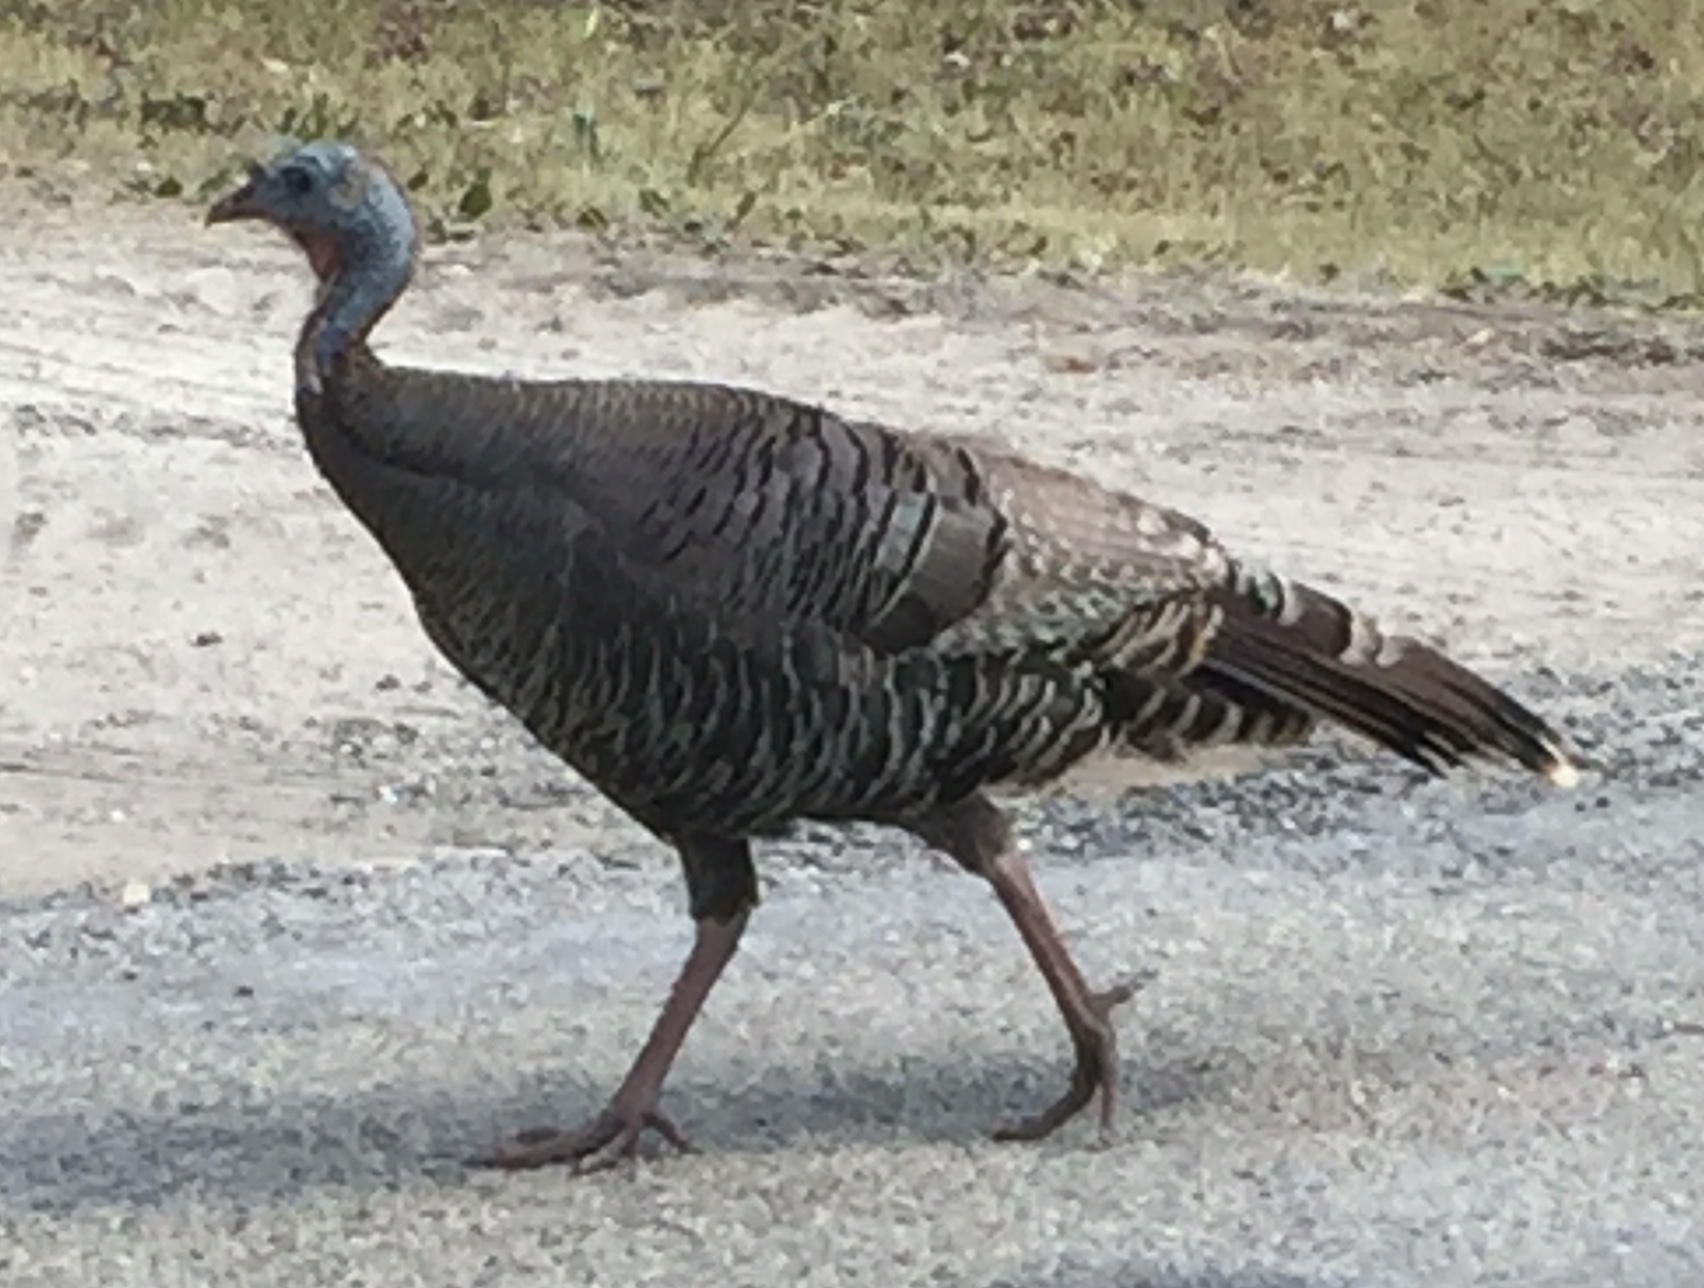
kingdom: Animalia
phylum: Chordata
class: Aves
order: Galliformes
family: Phasianidae
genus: Meleagris
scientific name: Meleagris gallopavo
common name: Wild turkey
